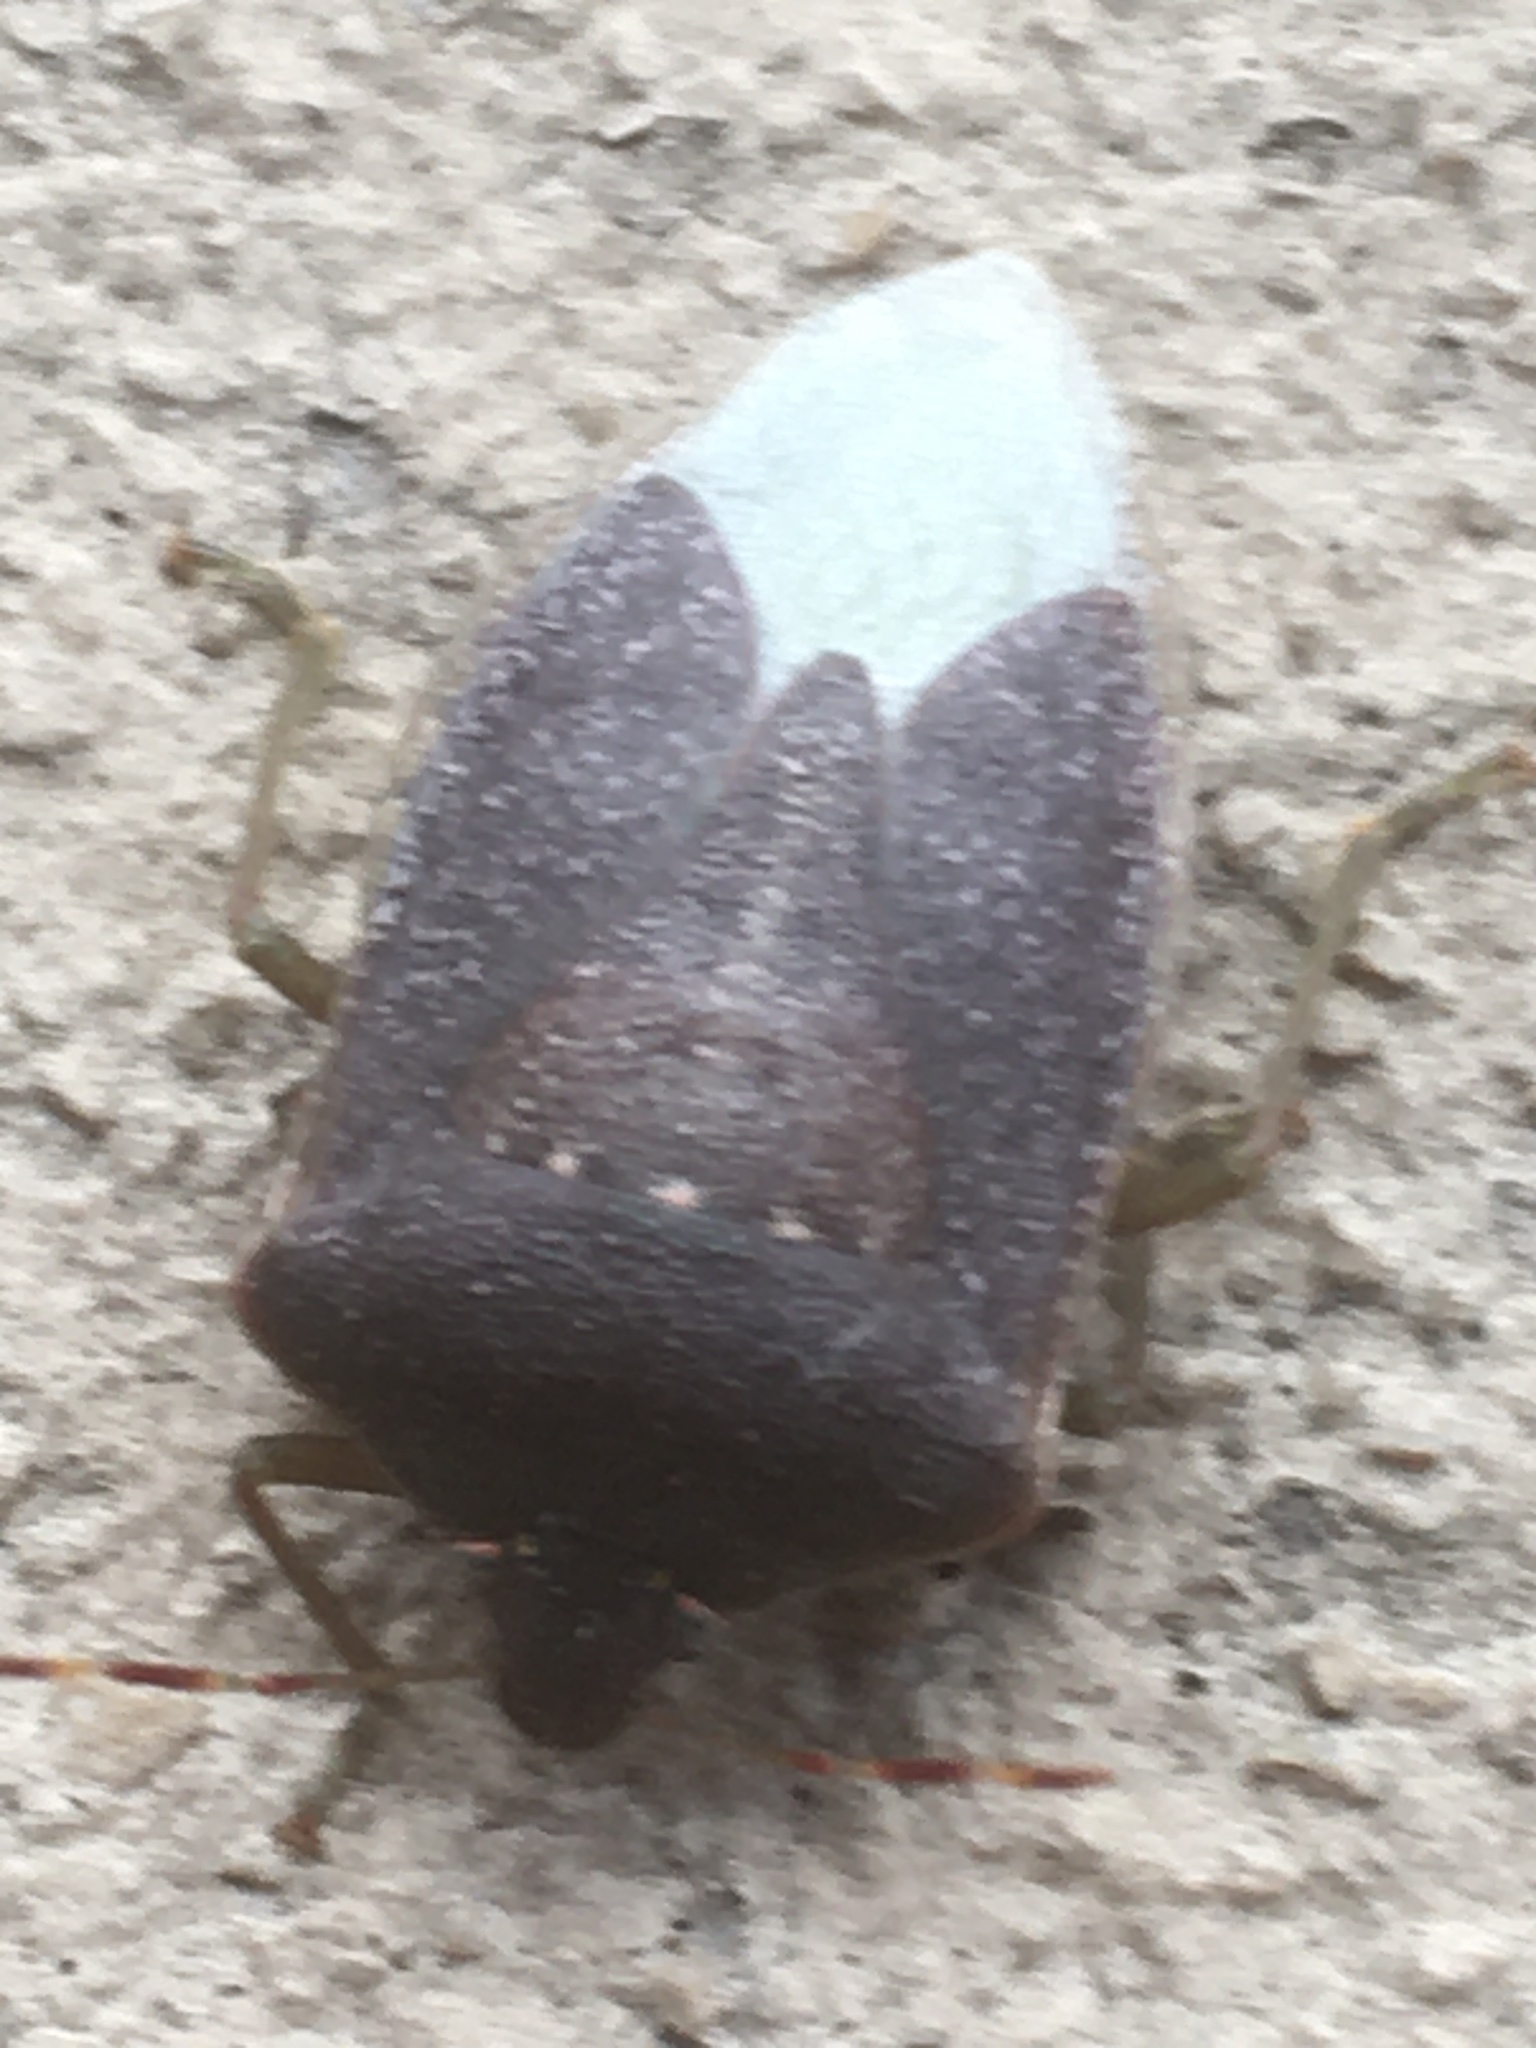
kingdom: Animalia
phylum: Arthropoda
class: Insecta
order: Hemiptera
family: Pentatomidae
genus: Nezara
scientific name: Nezara viridula
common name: Southern green stink bug
